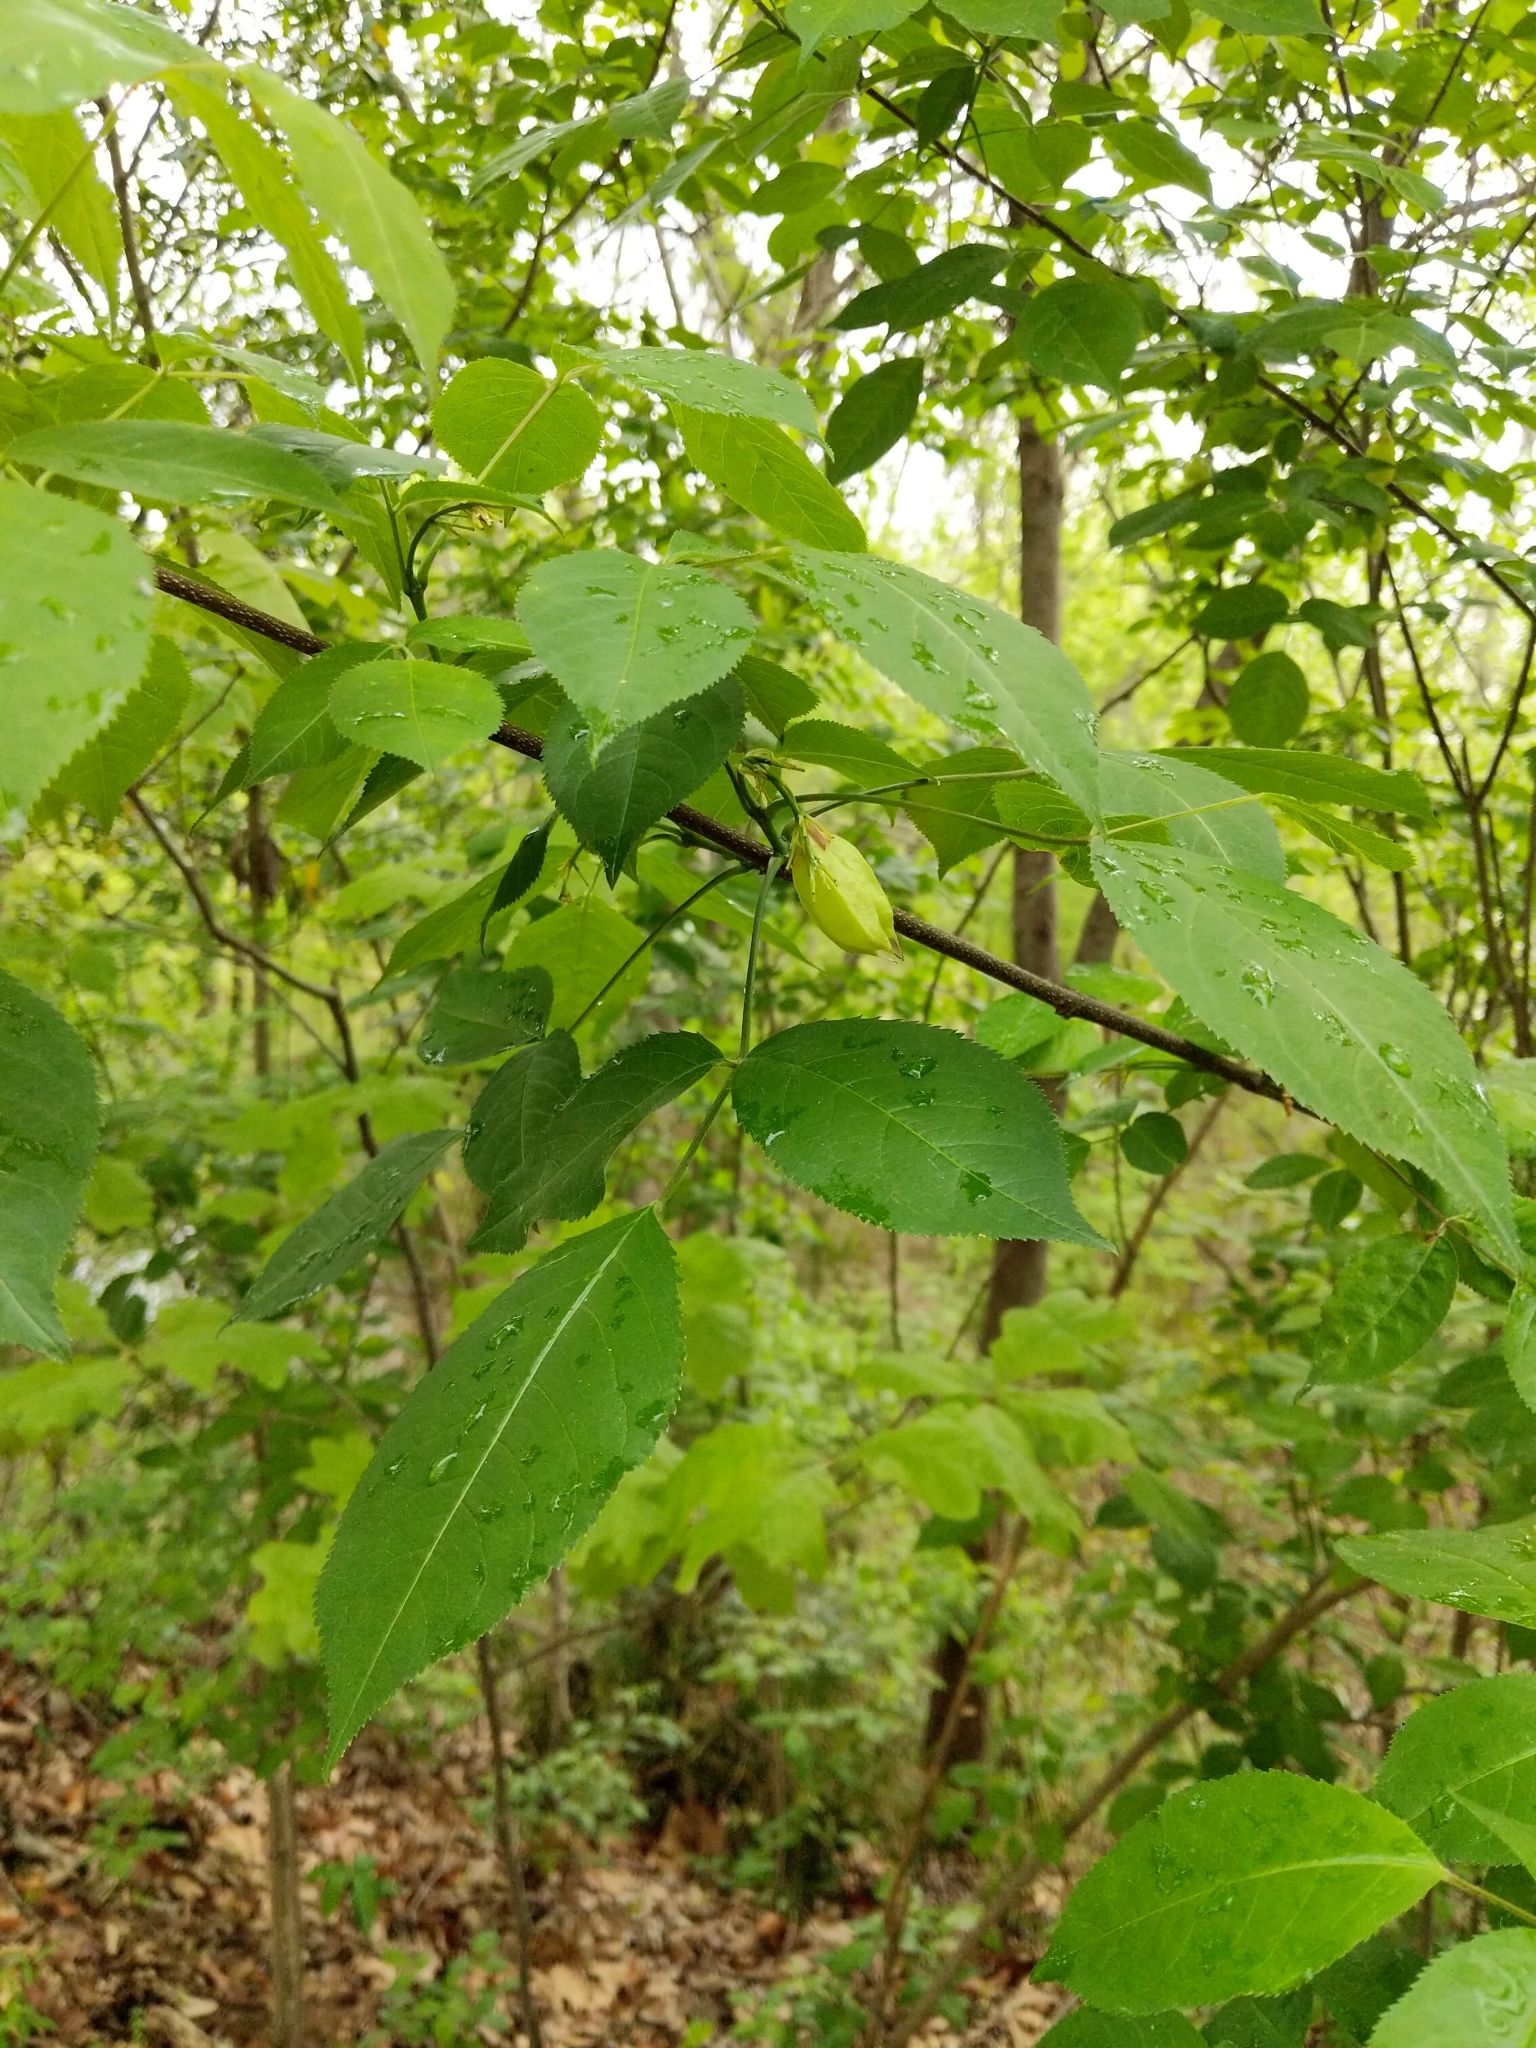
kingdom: Plantae
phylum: Tracheophyta
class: Magnoliopsida
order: Crossosomatales
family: Staphyleaceae
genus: Staphylea
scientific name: Staphylea trifolia
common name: American bladdernut
